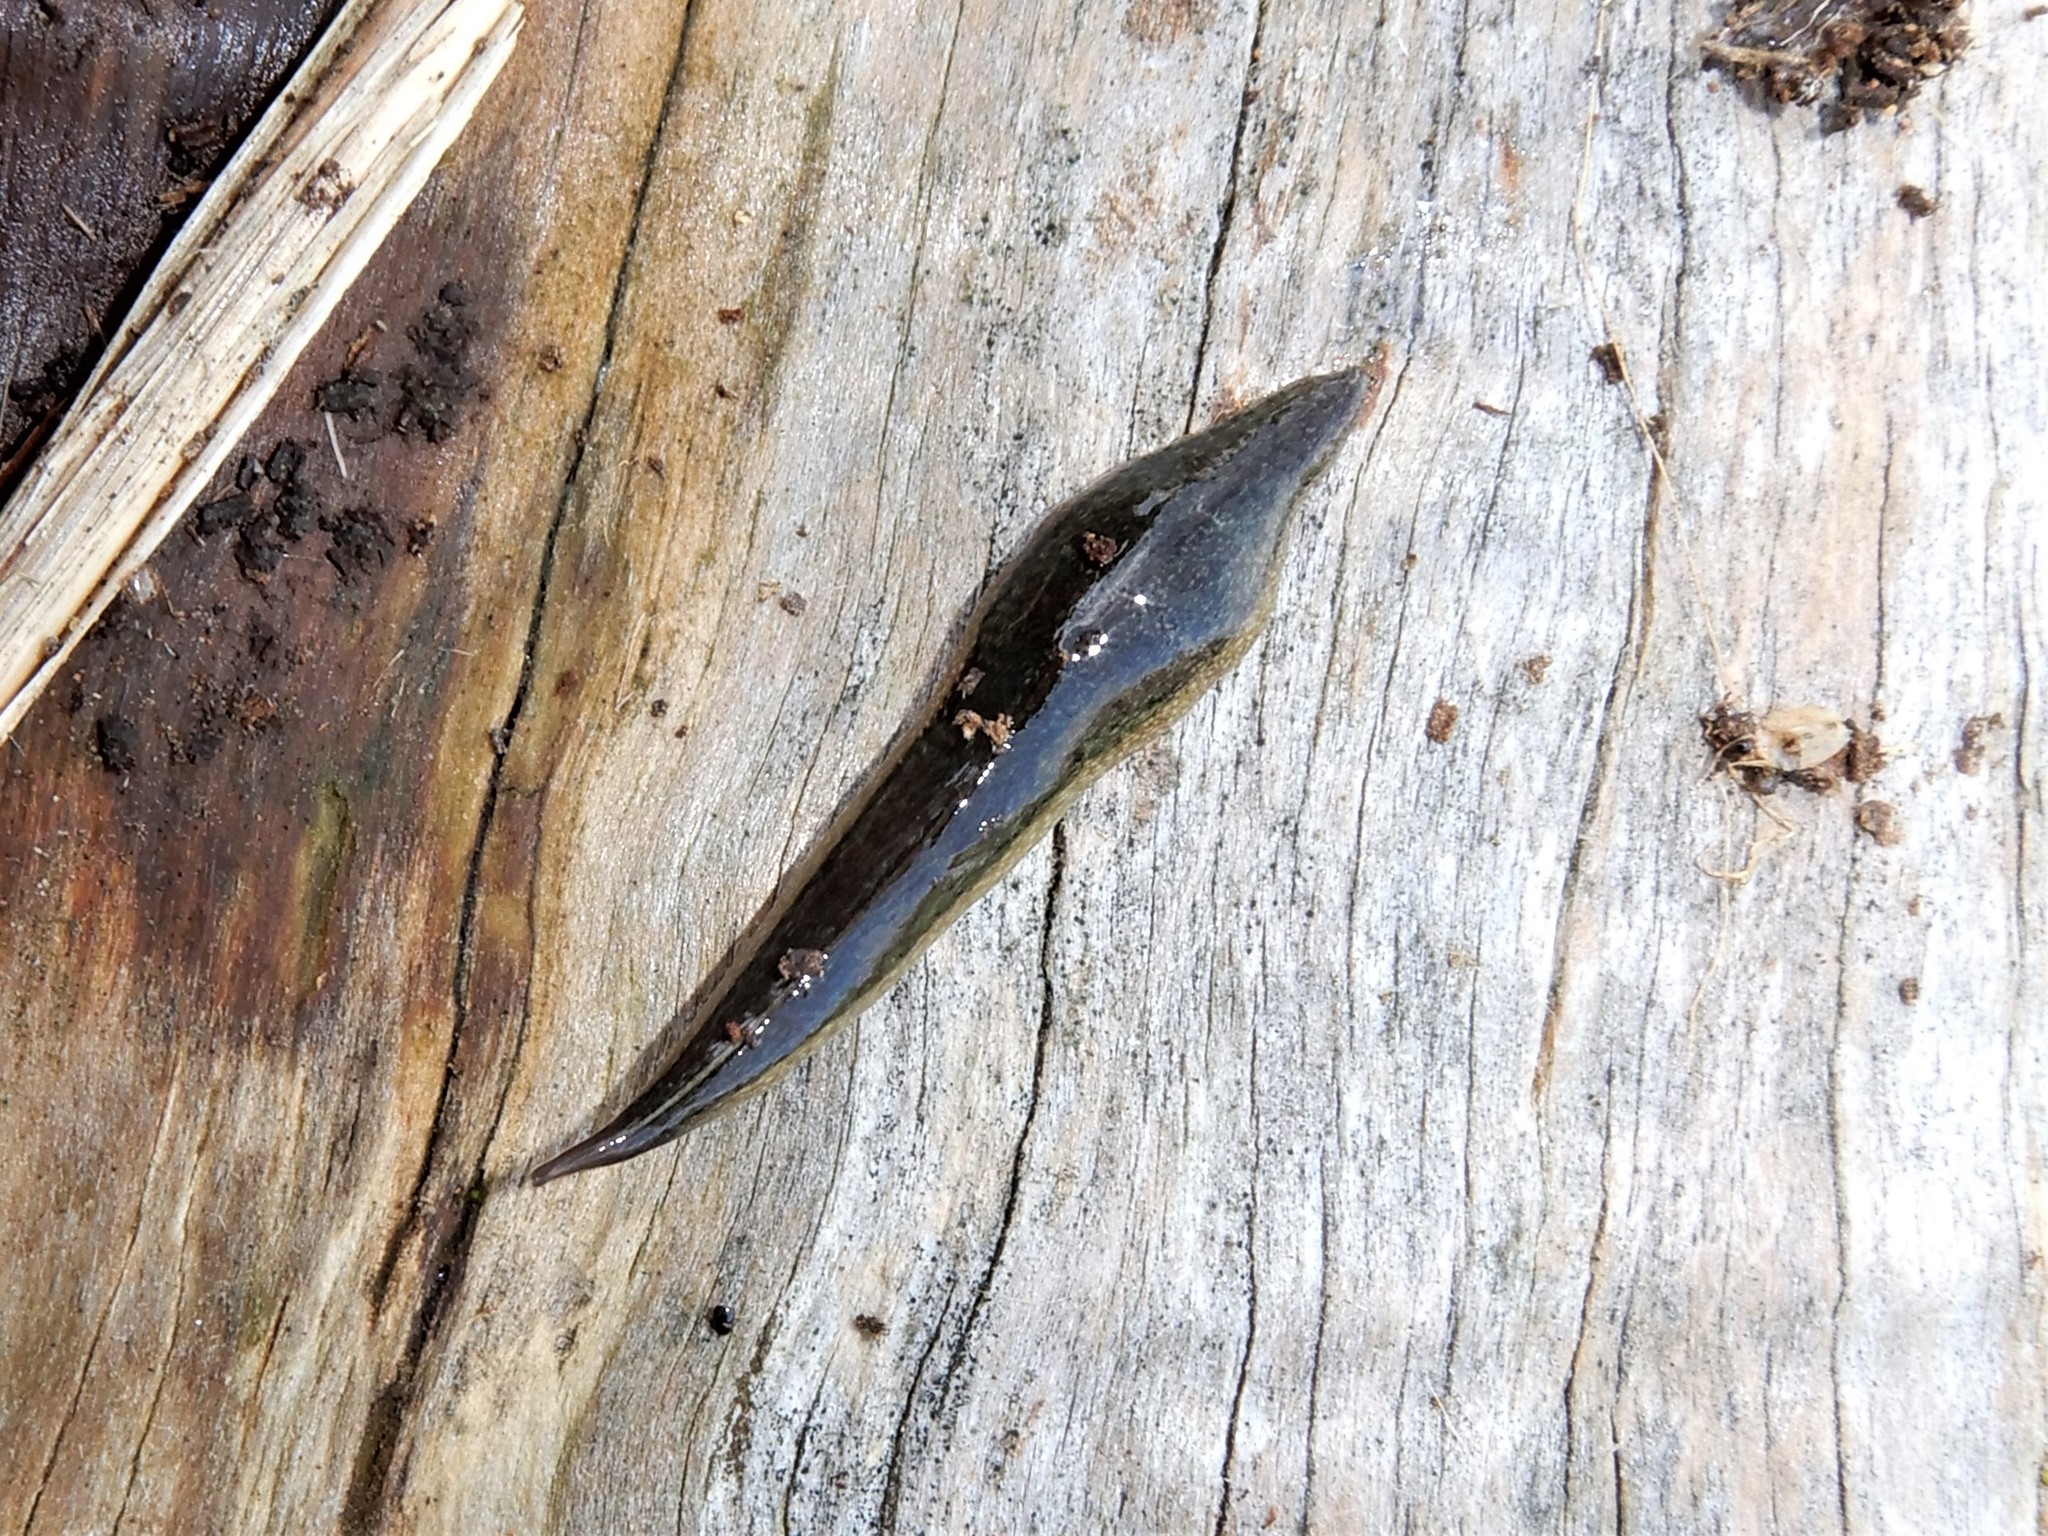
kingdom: Animalia
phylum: Platyhelminthes
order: Tricladida
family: Geoplanidae
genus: Newzealandia
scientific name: Newzealandia graffii
